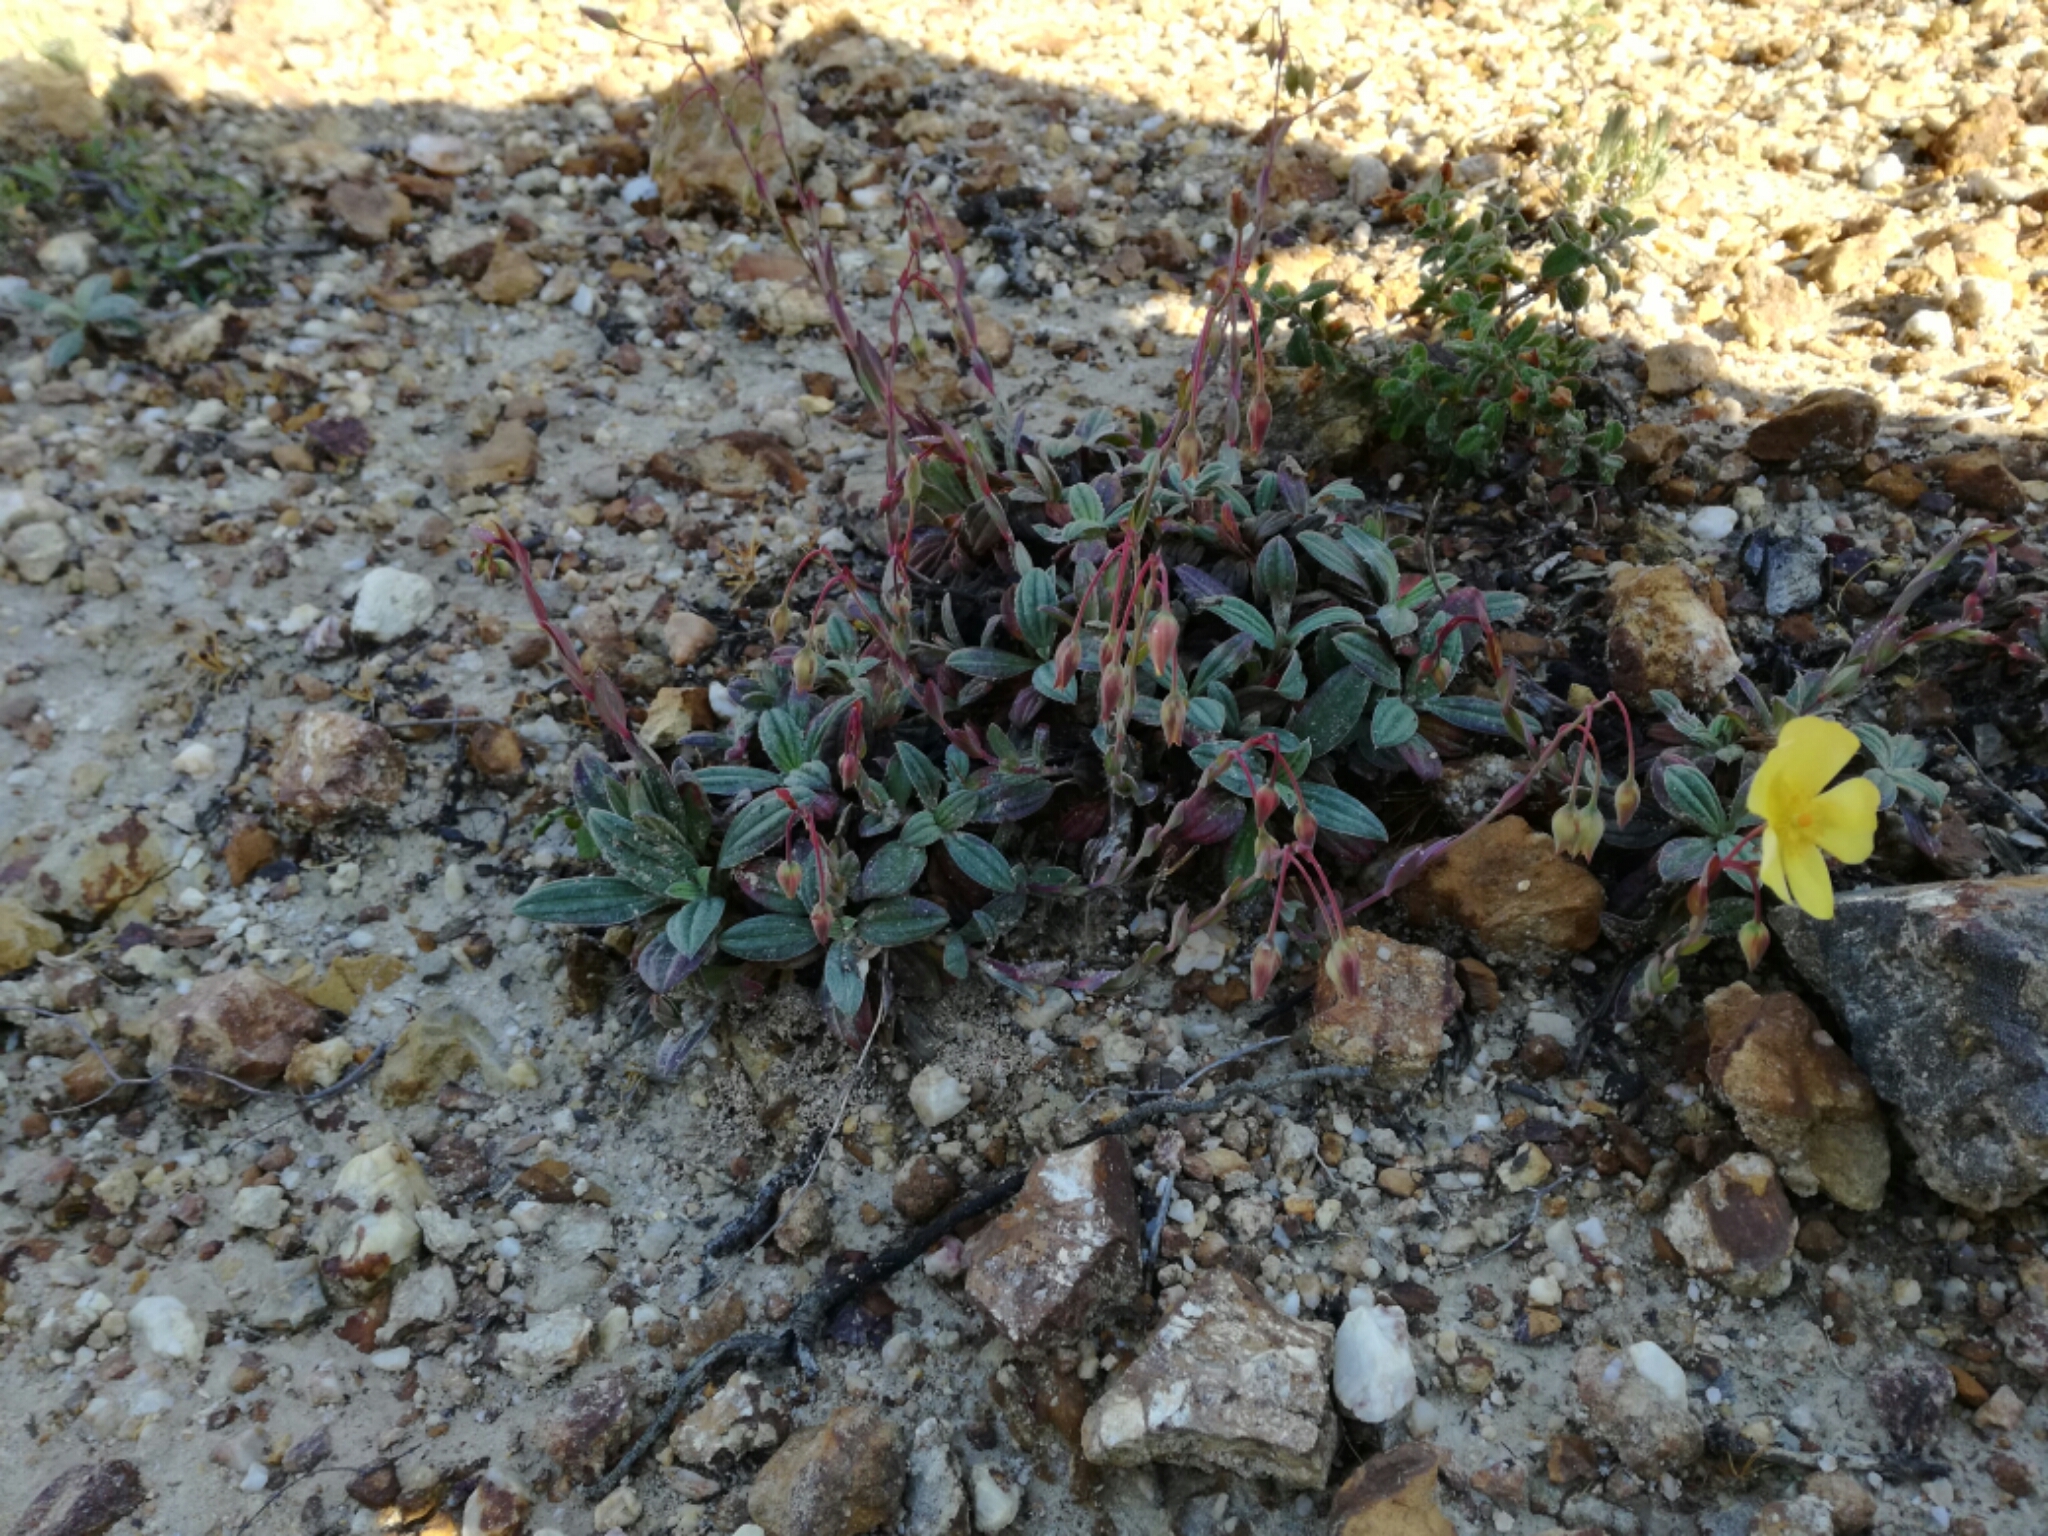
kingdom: Plantae
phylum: Tracheophyta
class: Magnoliopsida
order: Malvales
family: Cistaceae
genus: Tuberaria
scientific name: Tuberaria lignosa
